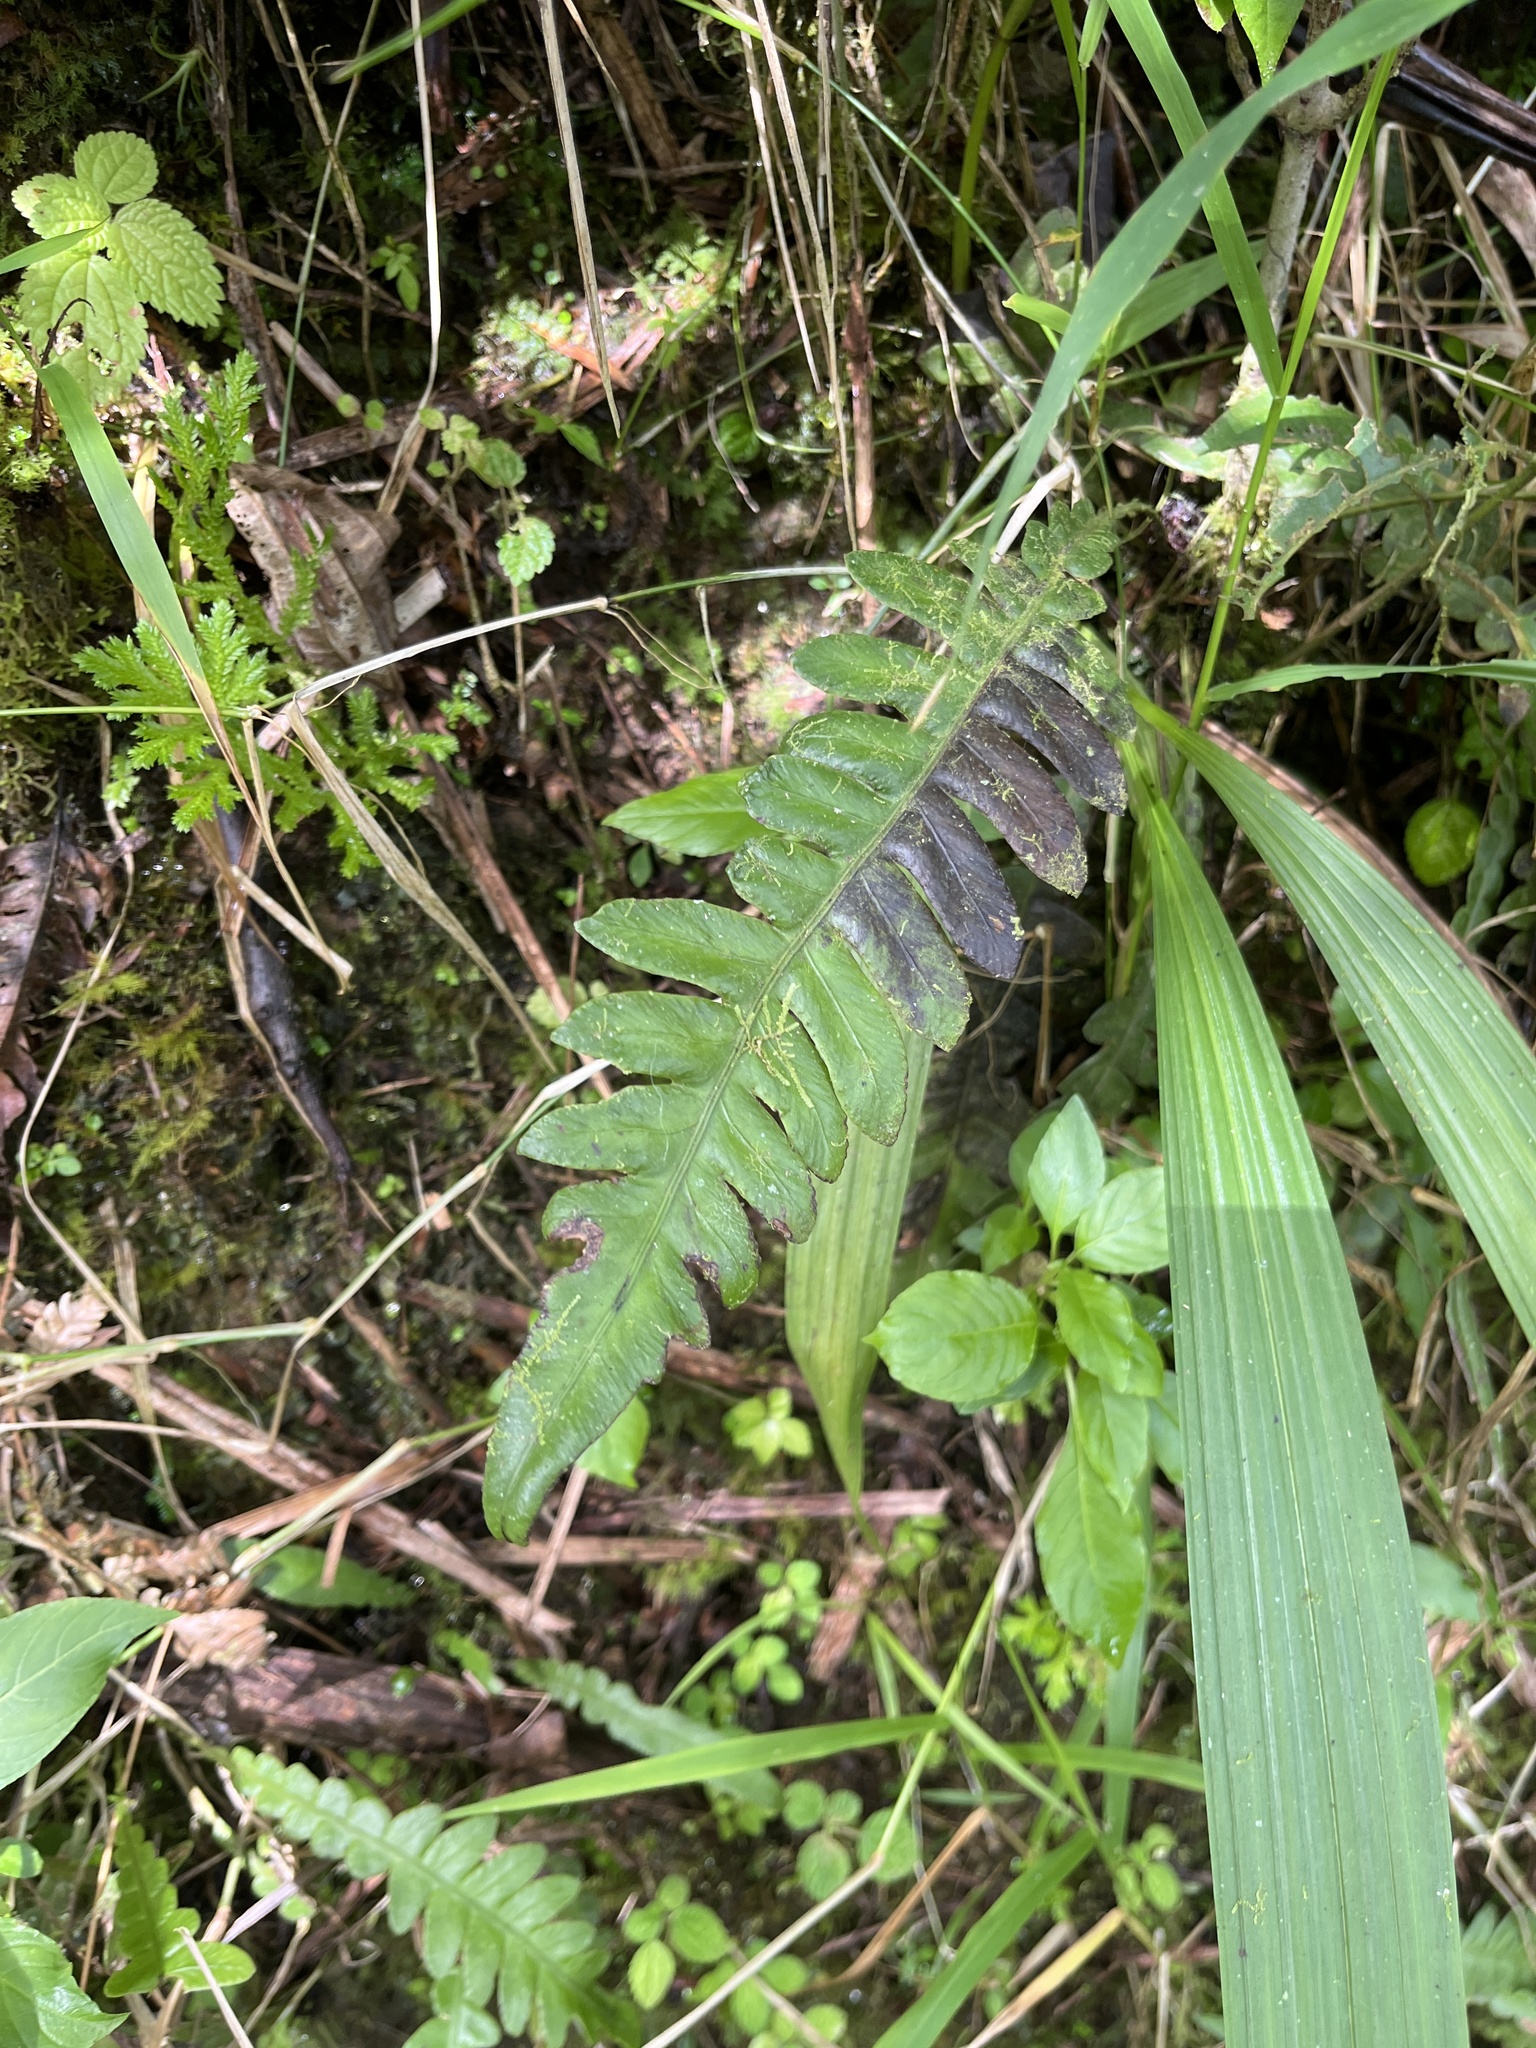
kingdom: Plantae
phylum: Tracheophyta
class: Polypodiopsida
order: Polypodiales
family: Blechnaceae
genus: Blechnum
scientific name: Blechnum polypodioides
